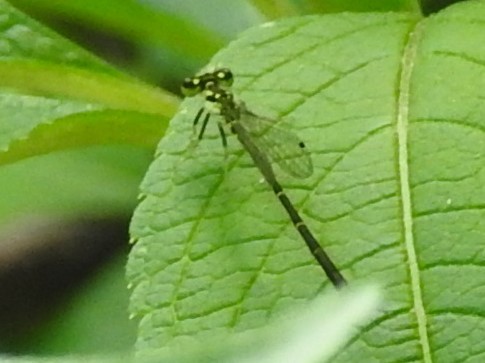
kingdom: Animalia
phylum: Arthropoda
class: Insecta
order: Odonata
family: Coenagrionidae
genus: Ischnura
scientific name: Ischnura posita
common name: Fragile forktail
